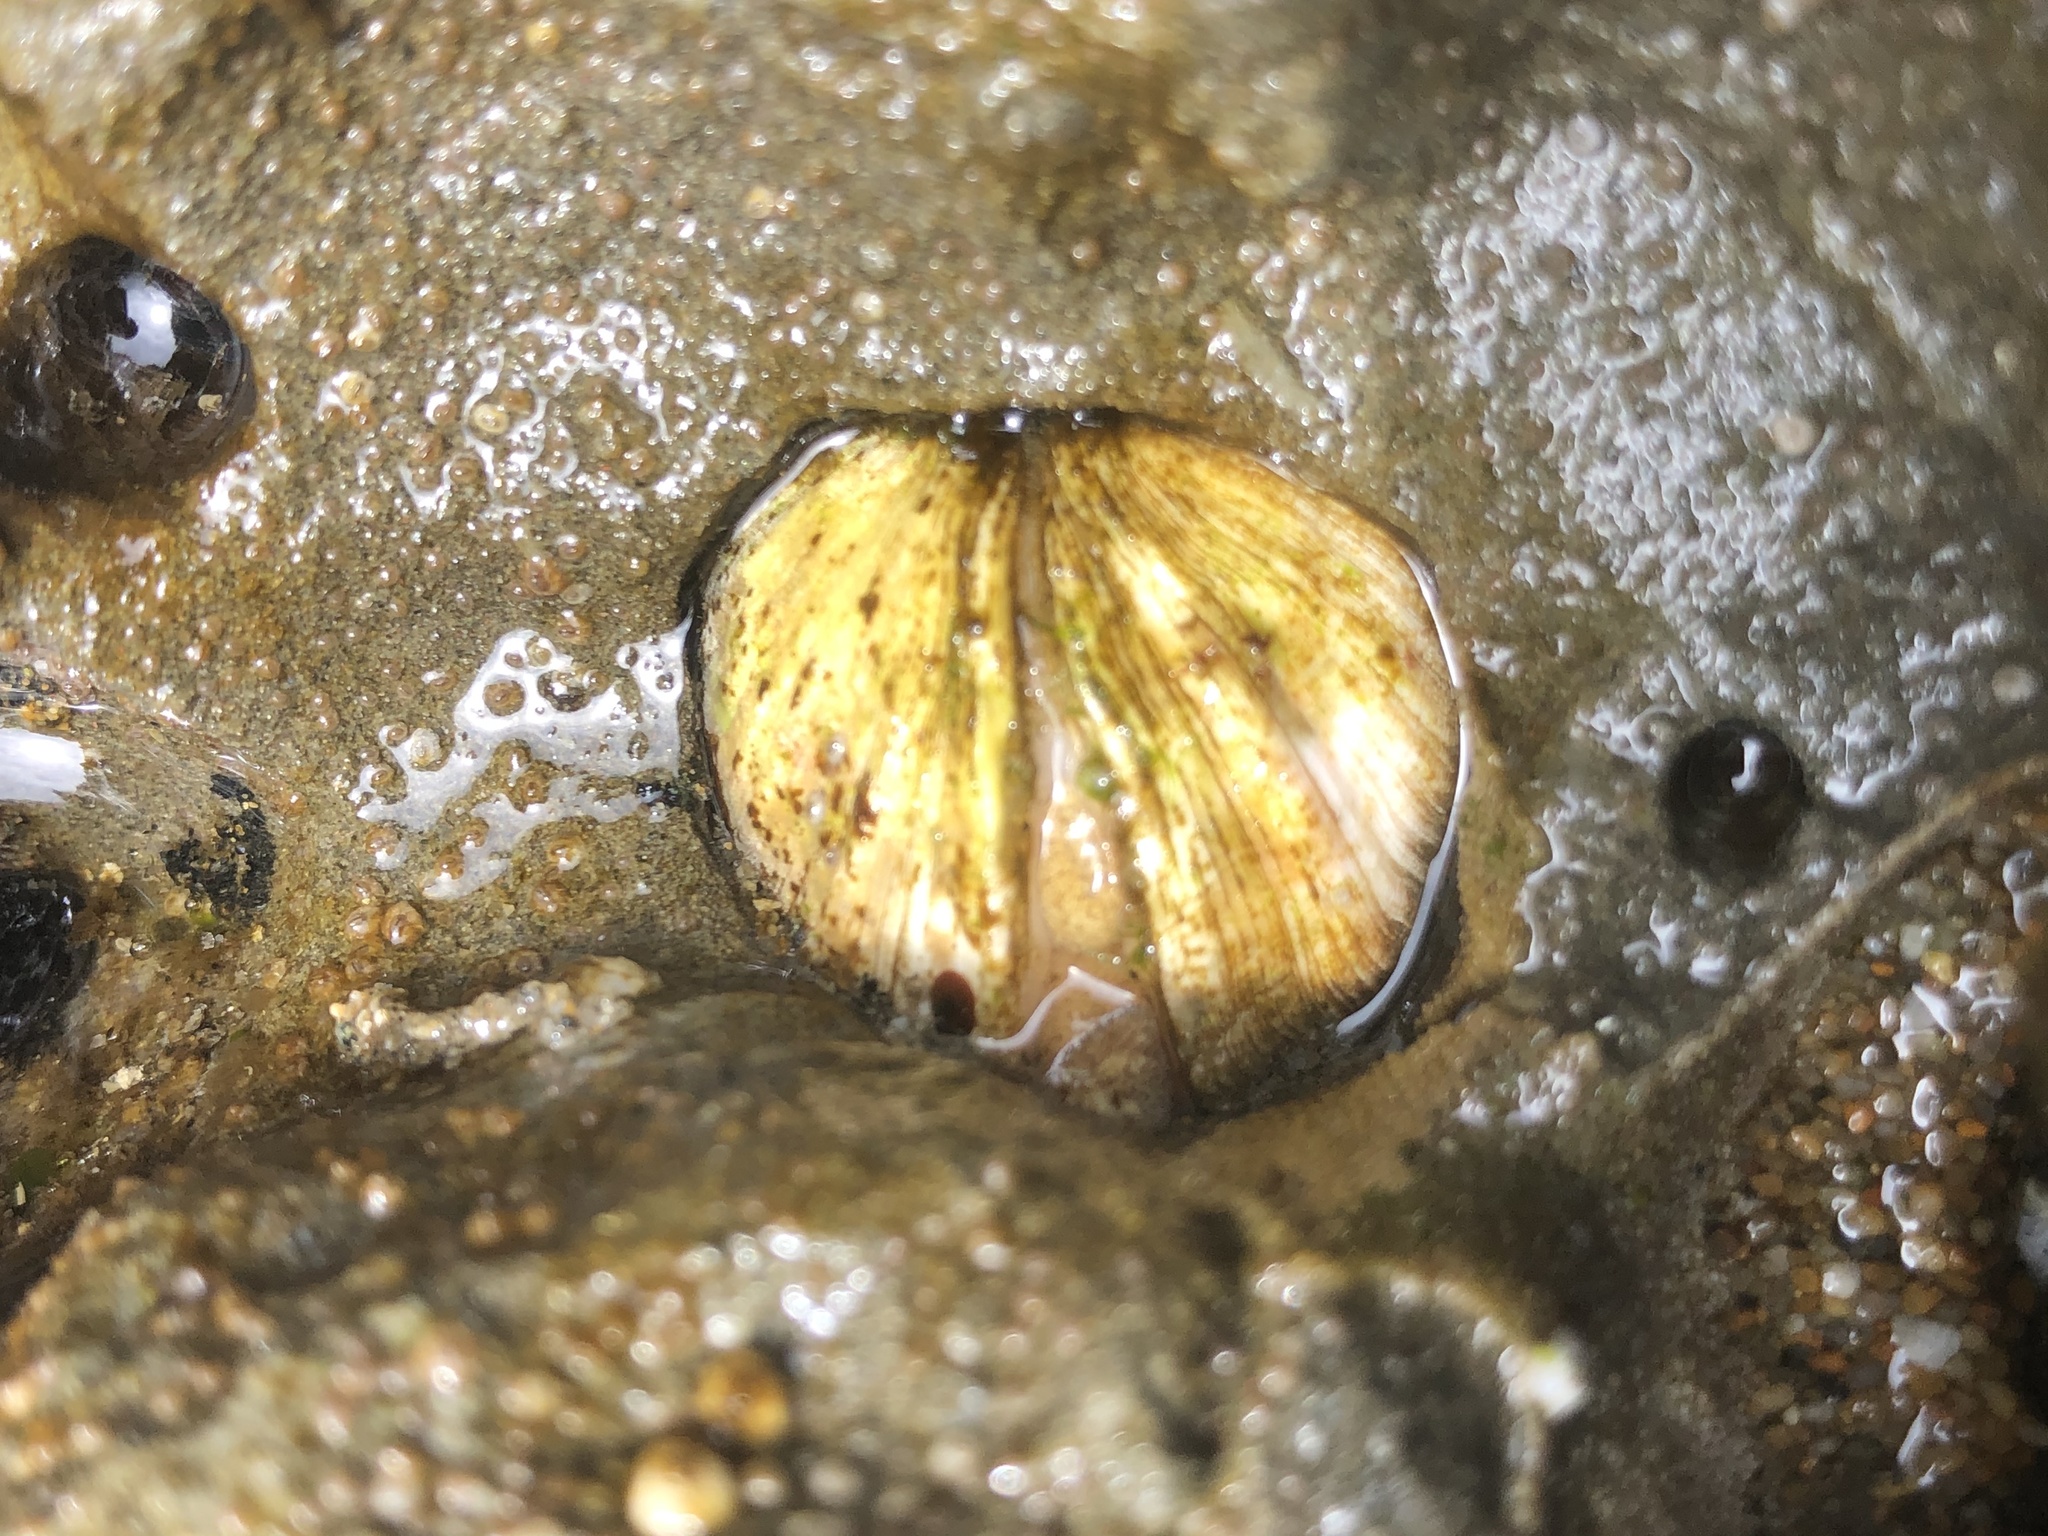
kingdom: Animalia
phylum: Mollusca
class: Bivalvia
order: Venerida
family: Veneridae
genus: Petricola
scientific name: Petricola carditoides
